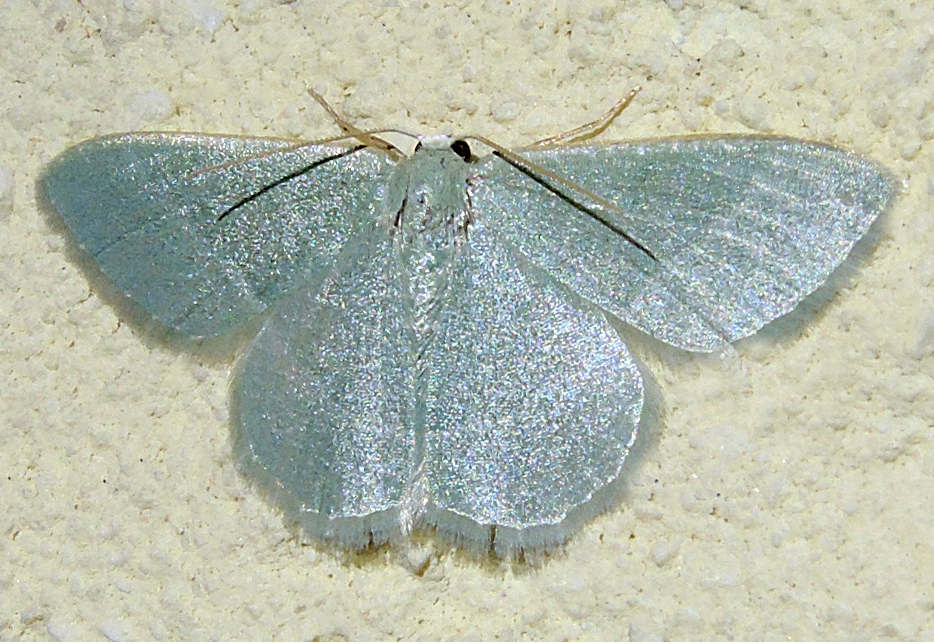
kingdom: Animalia
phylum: Arthropoda
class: Insecta
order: Lepidoptera
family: Geometridae
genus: Chlorissa
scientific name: Chlorissa etruscaria
